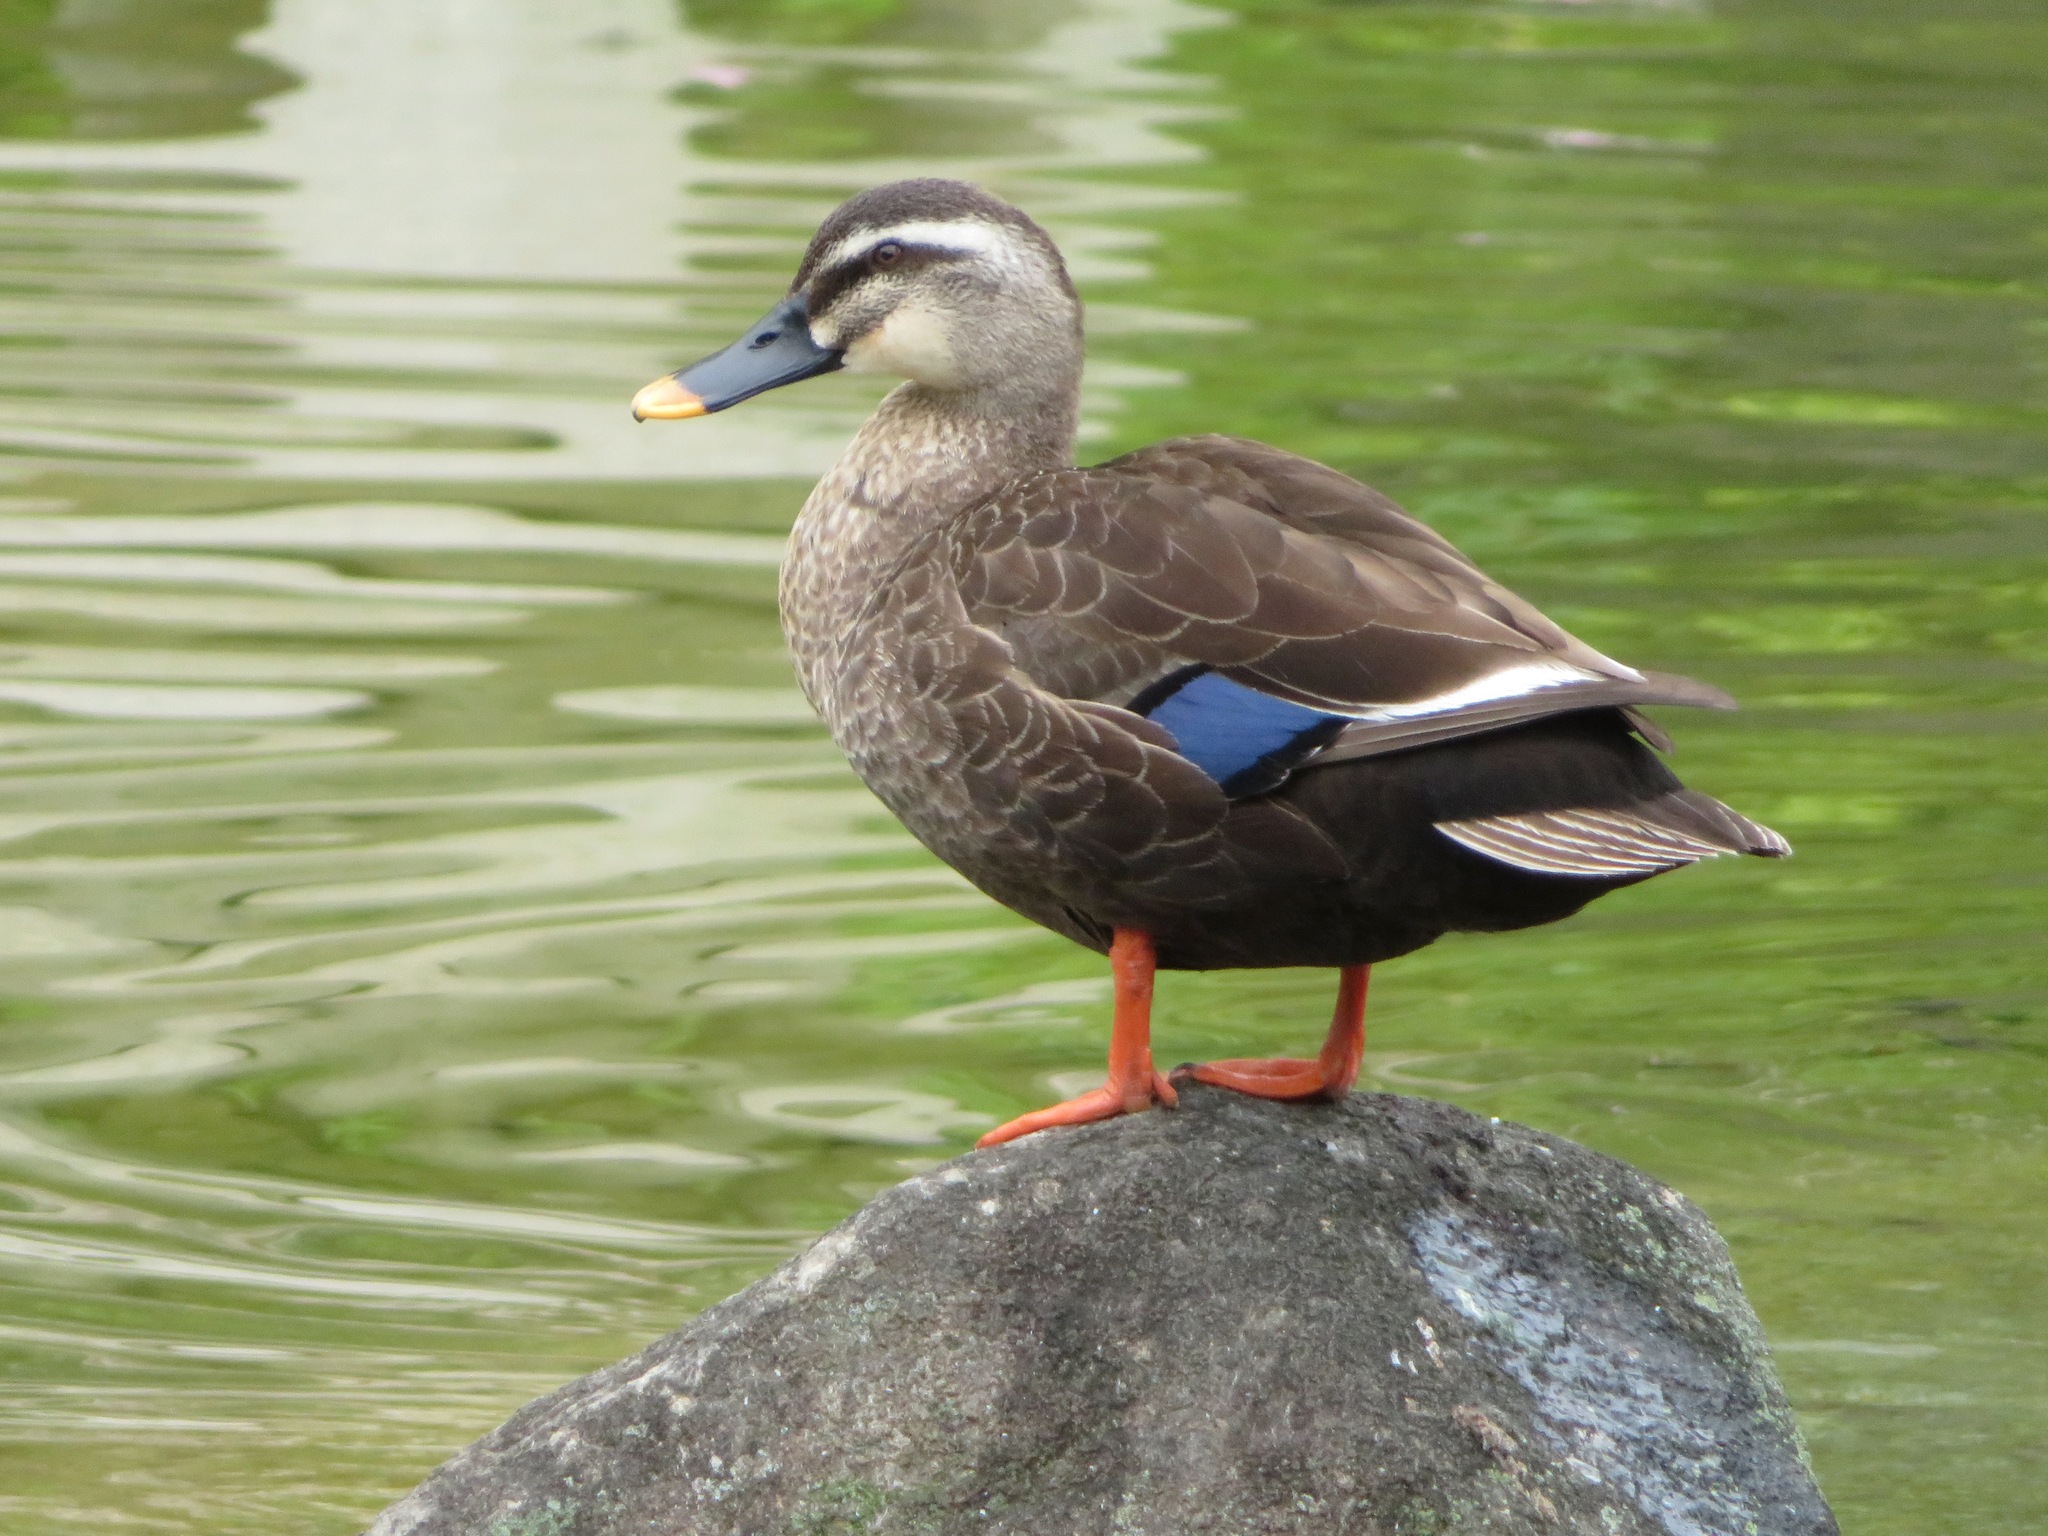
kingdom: Animalia
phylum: Chordata
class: Aves
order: Anseriformes
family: Anatidae
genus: Anas
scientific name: Anas zonorhyncha
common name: Eastern spot-billed duck
